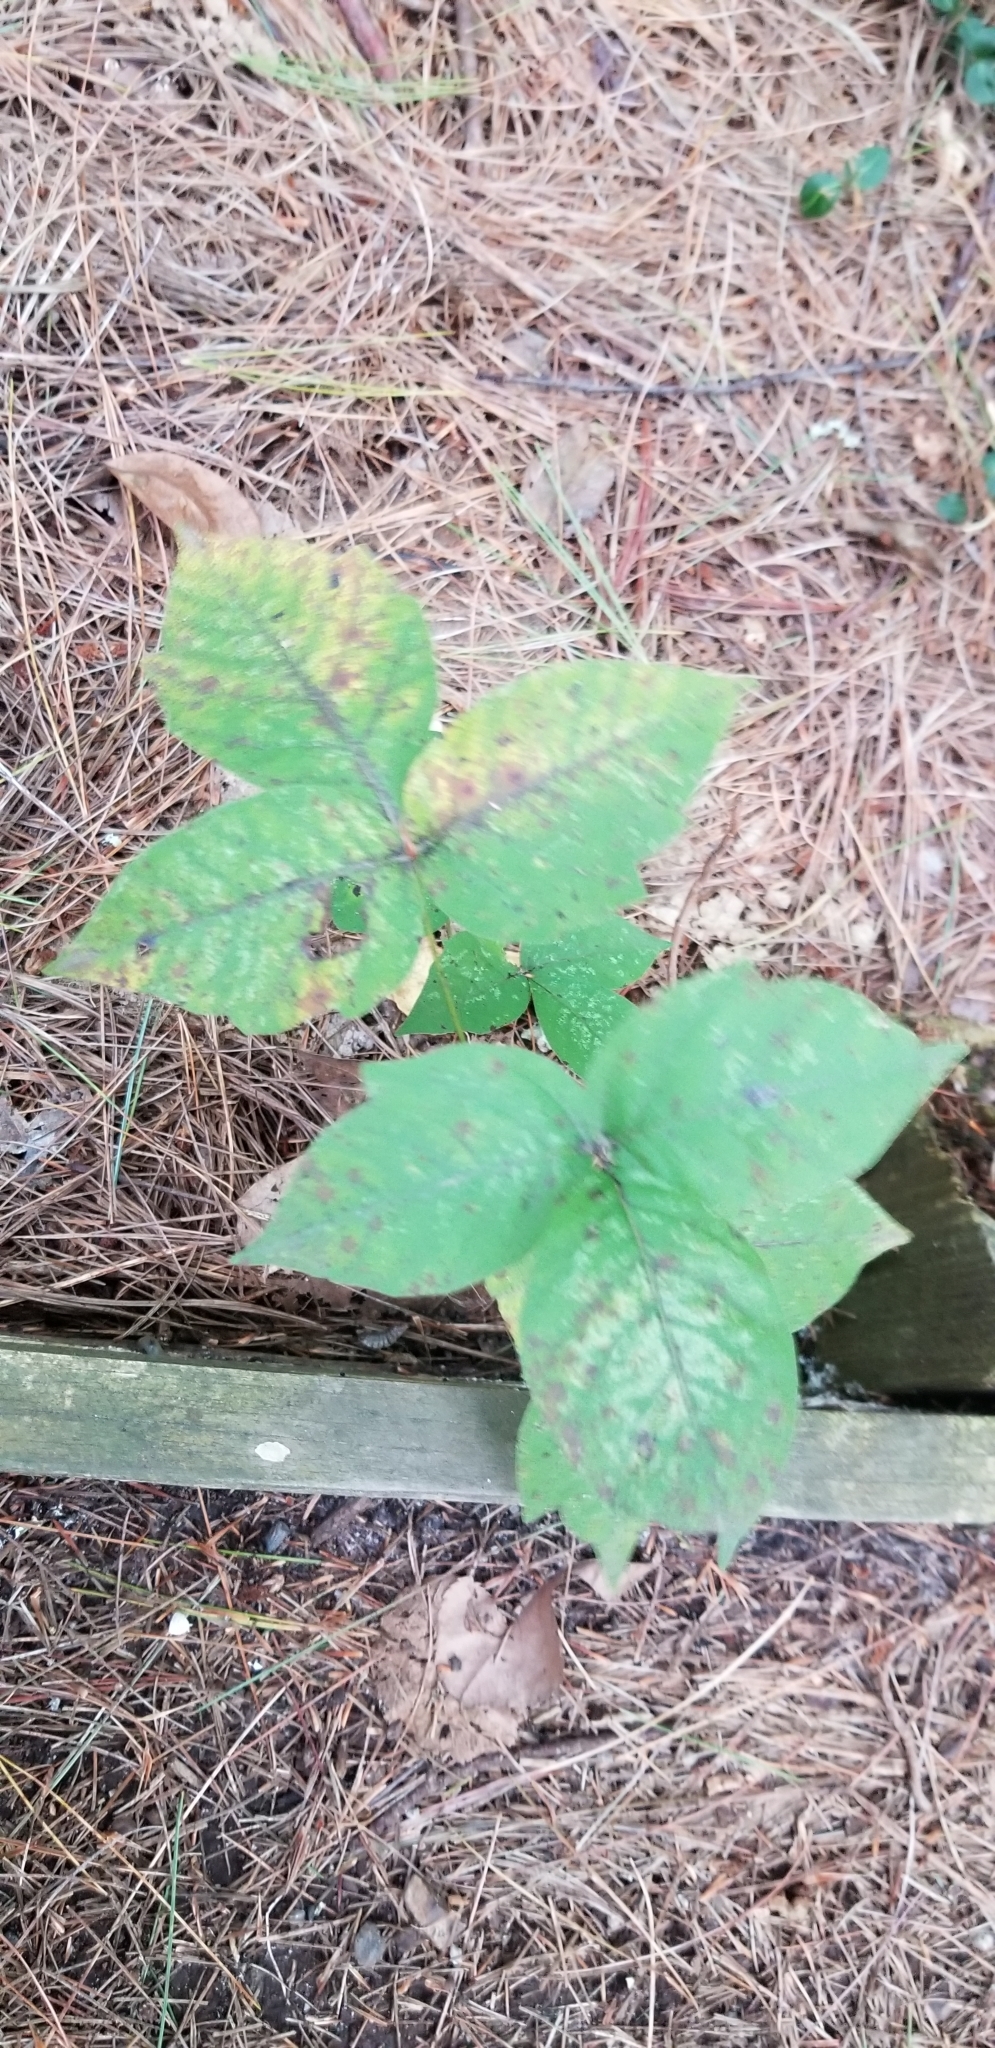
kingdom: Plantae
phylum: Tracheophyta
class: Magnoliopsida
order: Sapindales
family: Anacardiaceae
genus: Toxicodendron
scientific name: Toxicodendron radicans
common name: Poison ivy
